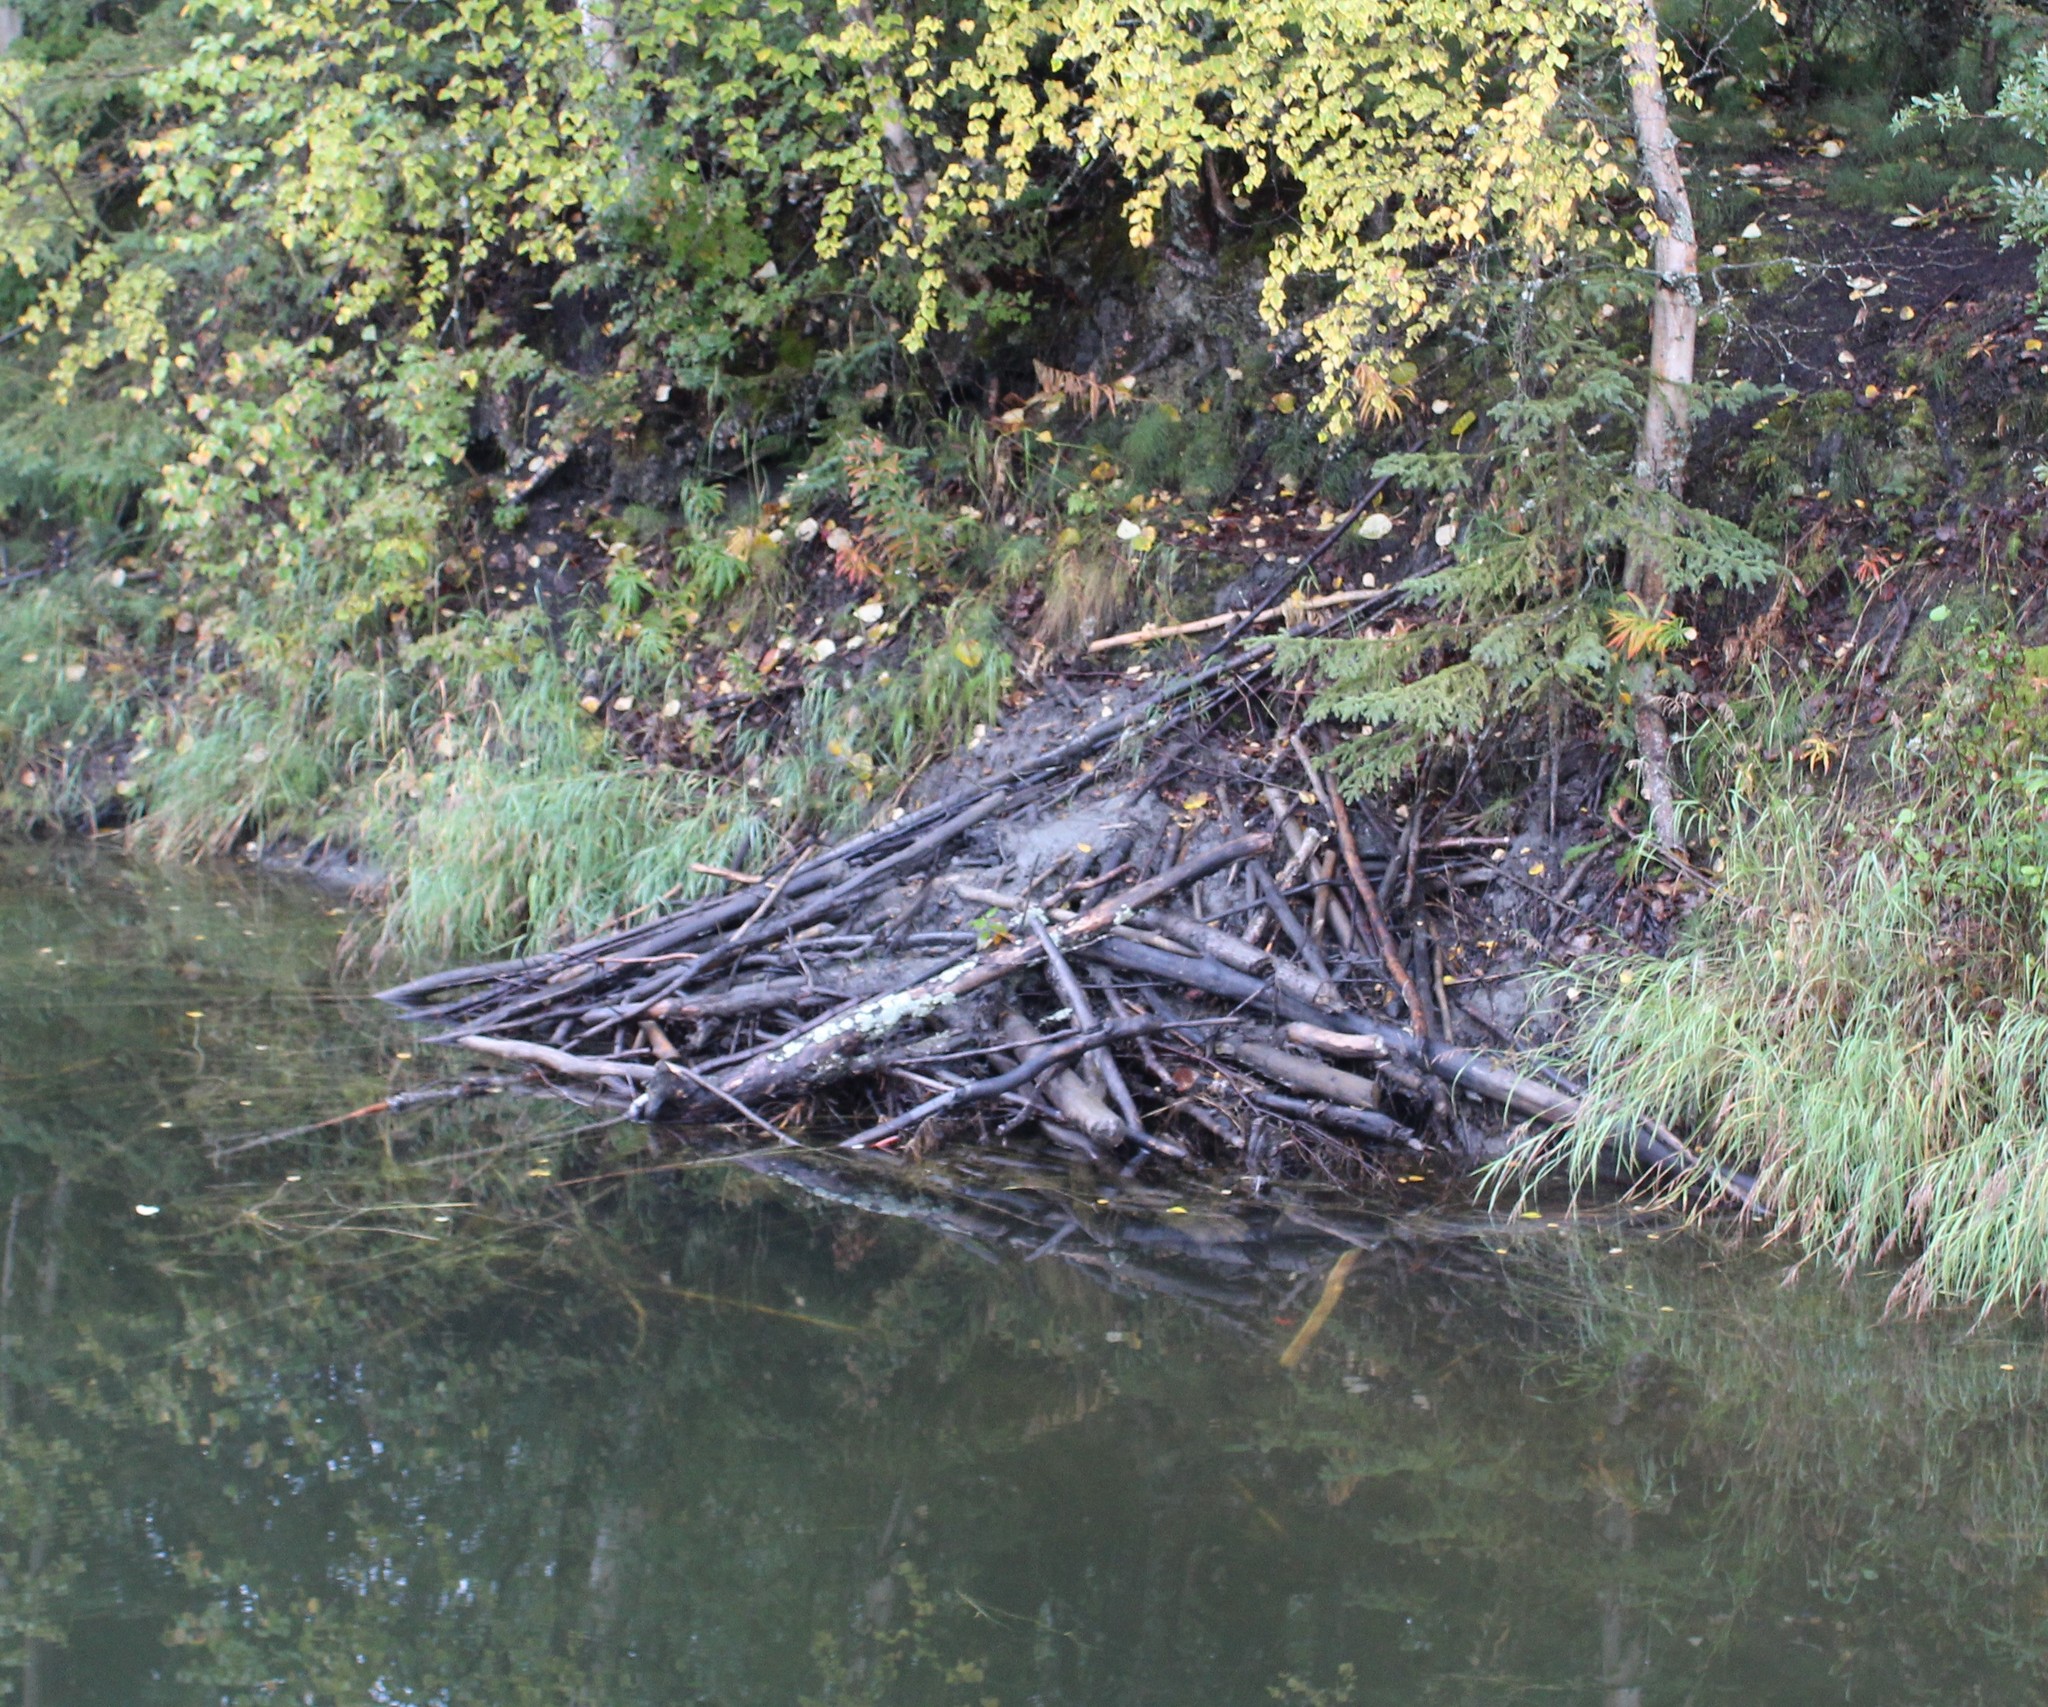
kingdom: Animalia
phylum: Chordata
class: Mammalia
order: Rodentia
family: Castoridae
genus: Castor
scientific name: Castor canadensis
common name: American beaver
